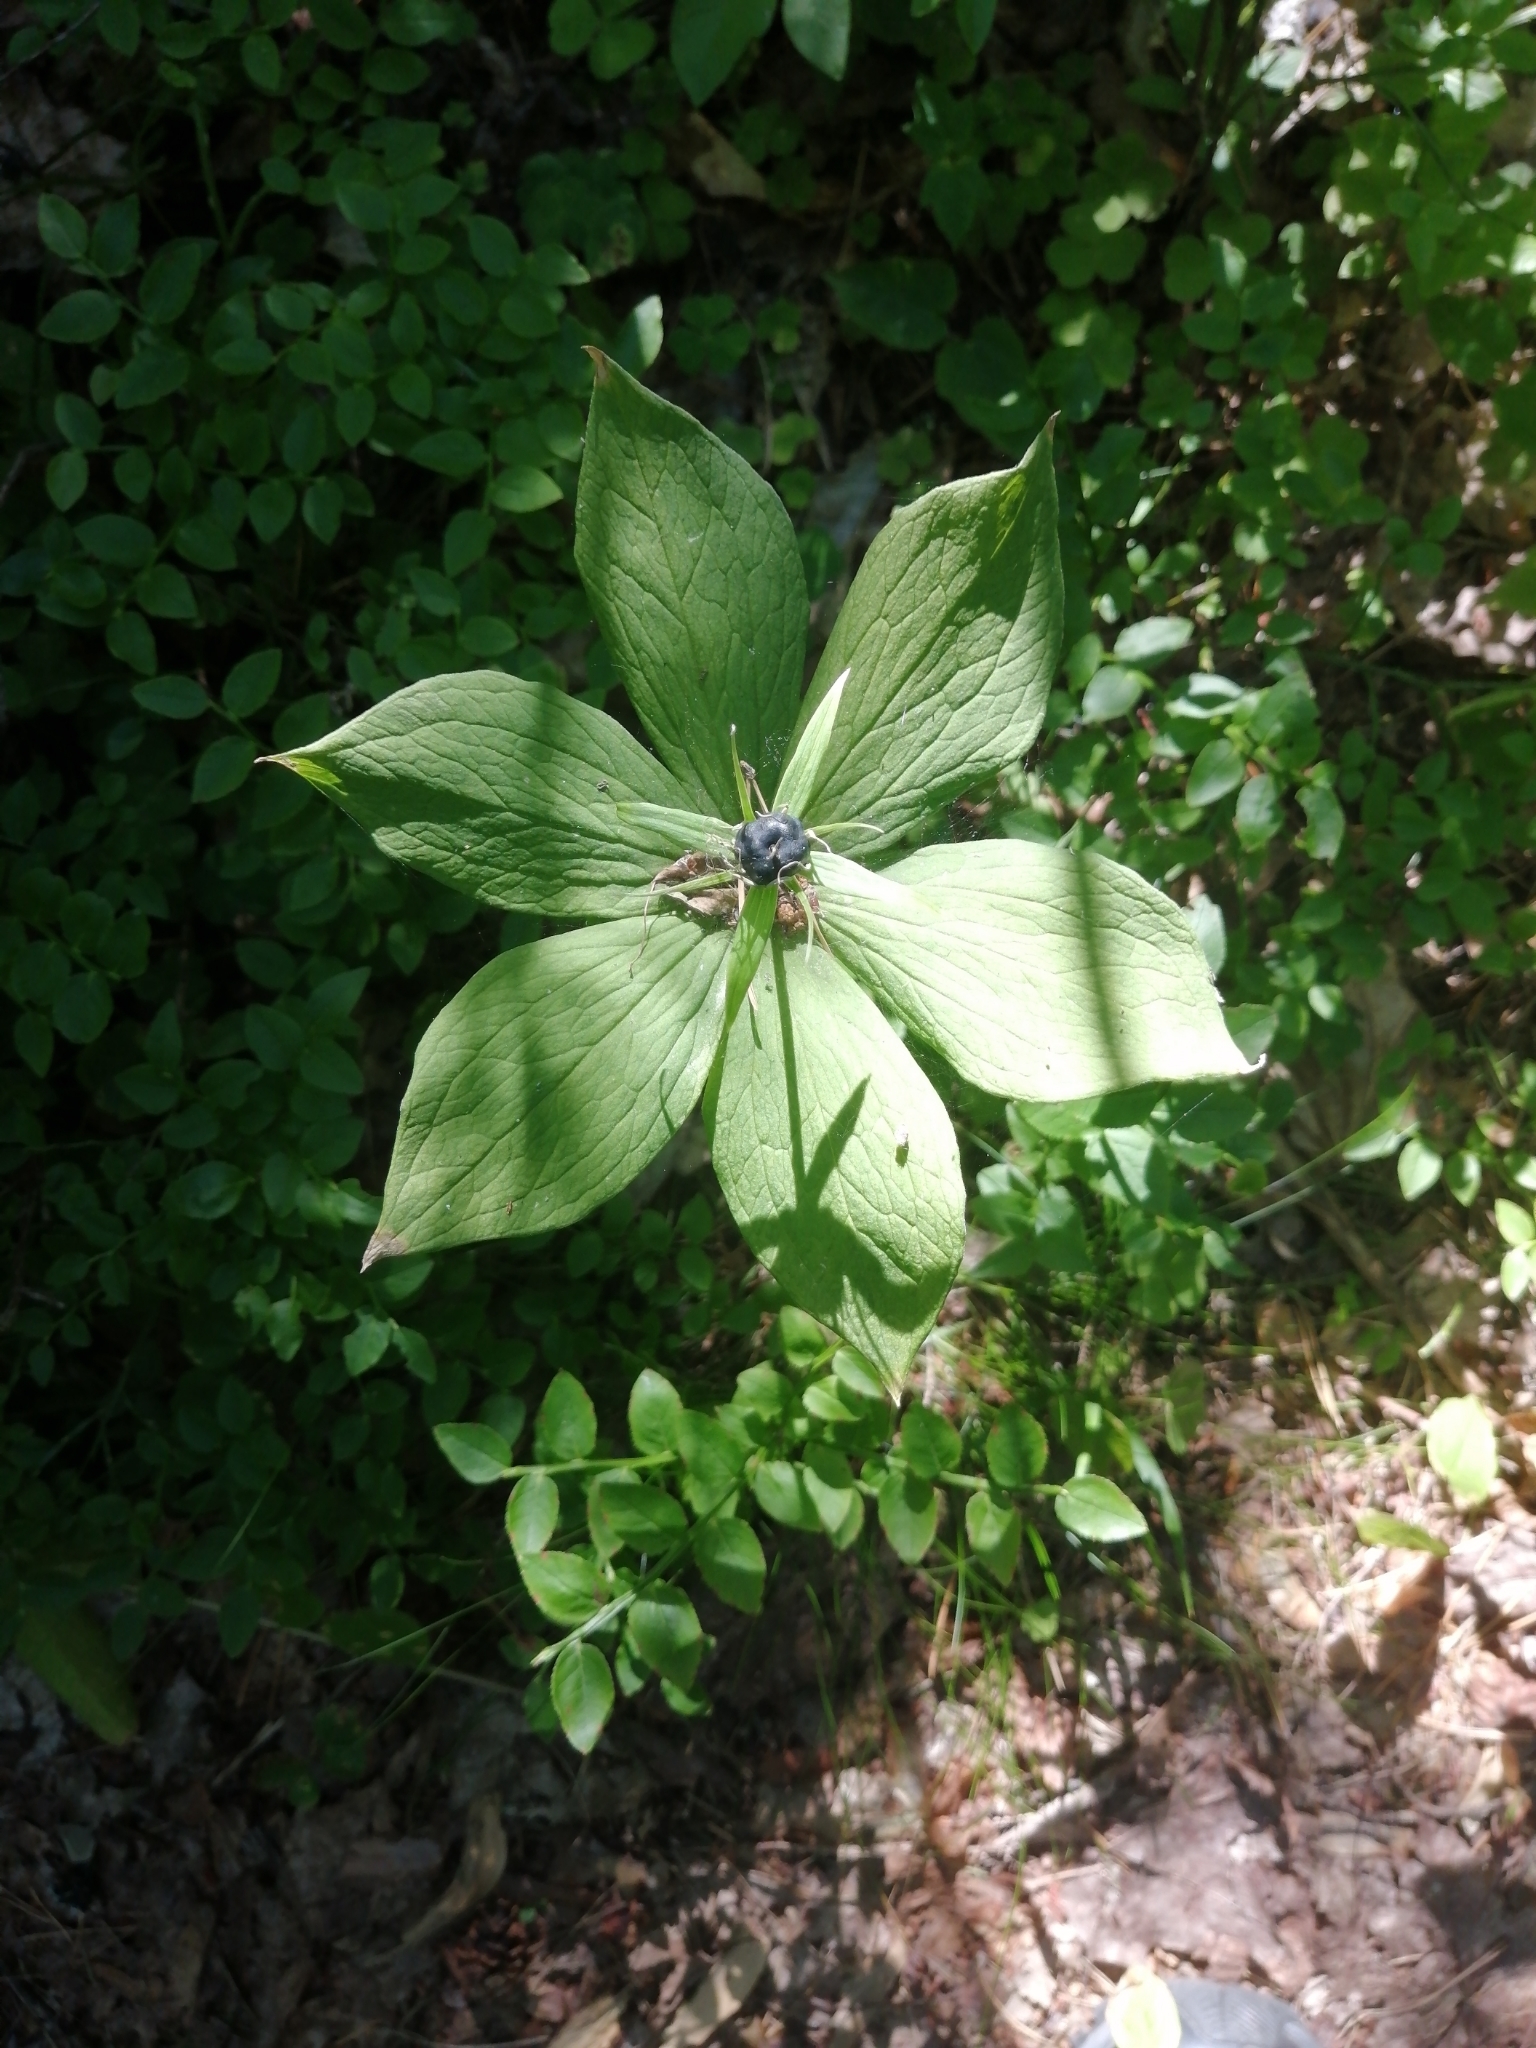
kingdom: Plantae
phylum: Tracheophyta
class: Liliopsida
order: Liliales
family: Melanthiaceae
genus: Paris
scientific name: Paris quadrifolia
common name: Herb-paris
